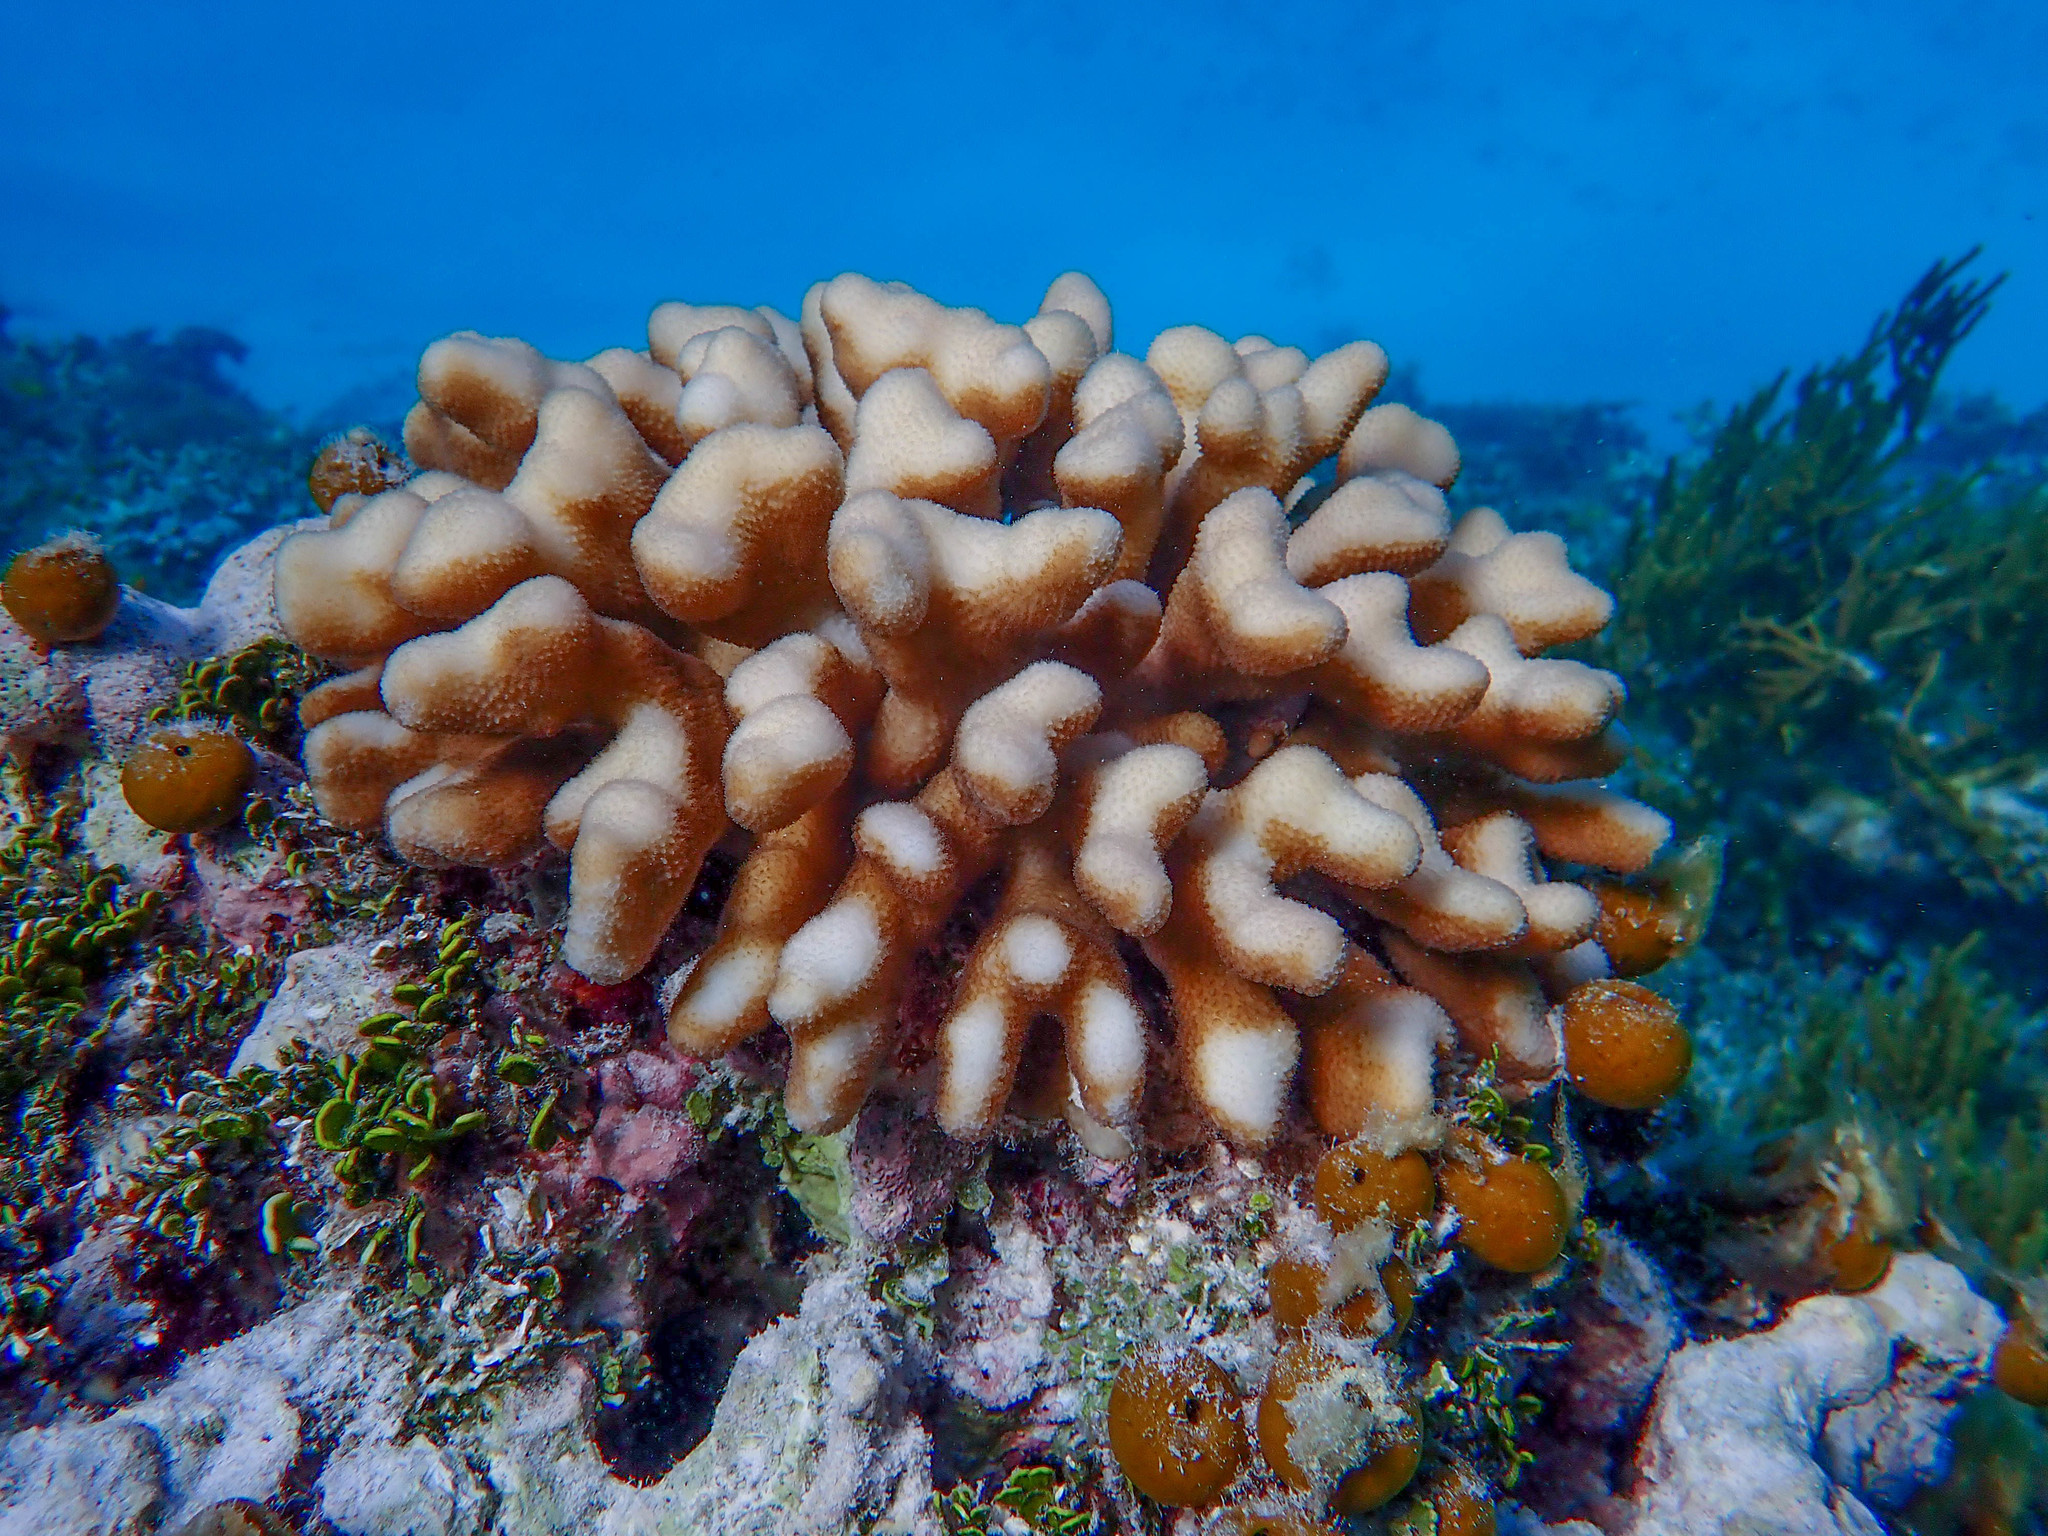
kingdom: Animalia
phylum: Cnidaria
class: Anthozoa
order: Scleractinia
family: Pocilloporidae
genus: Stylophora
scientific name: Stylophora pistillata
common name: Hood coral
